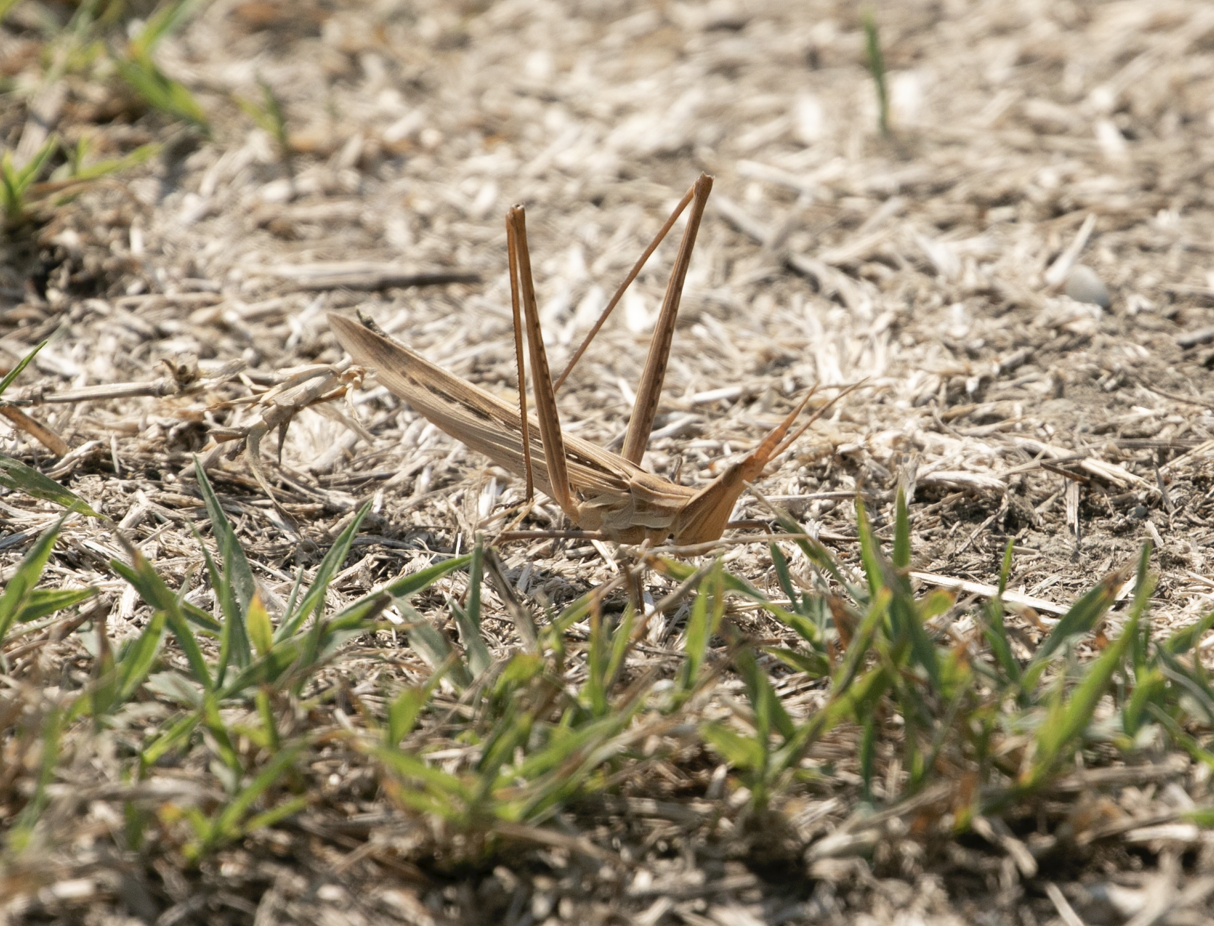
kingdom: Animalia
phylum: Arthropoda
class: Insecta
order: Orthoptera
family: Acrididae
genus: Acrida
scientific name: Acrida ungarica
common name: Common cone-headed grasshopper
